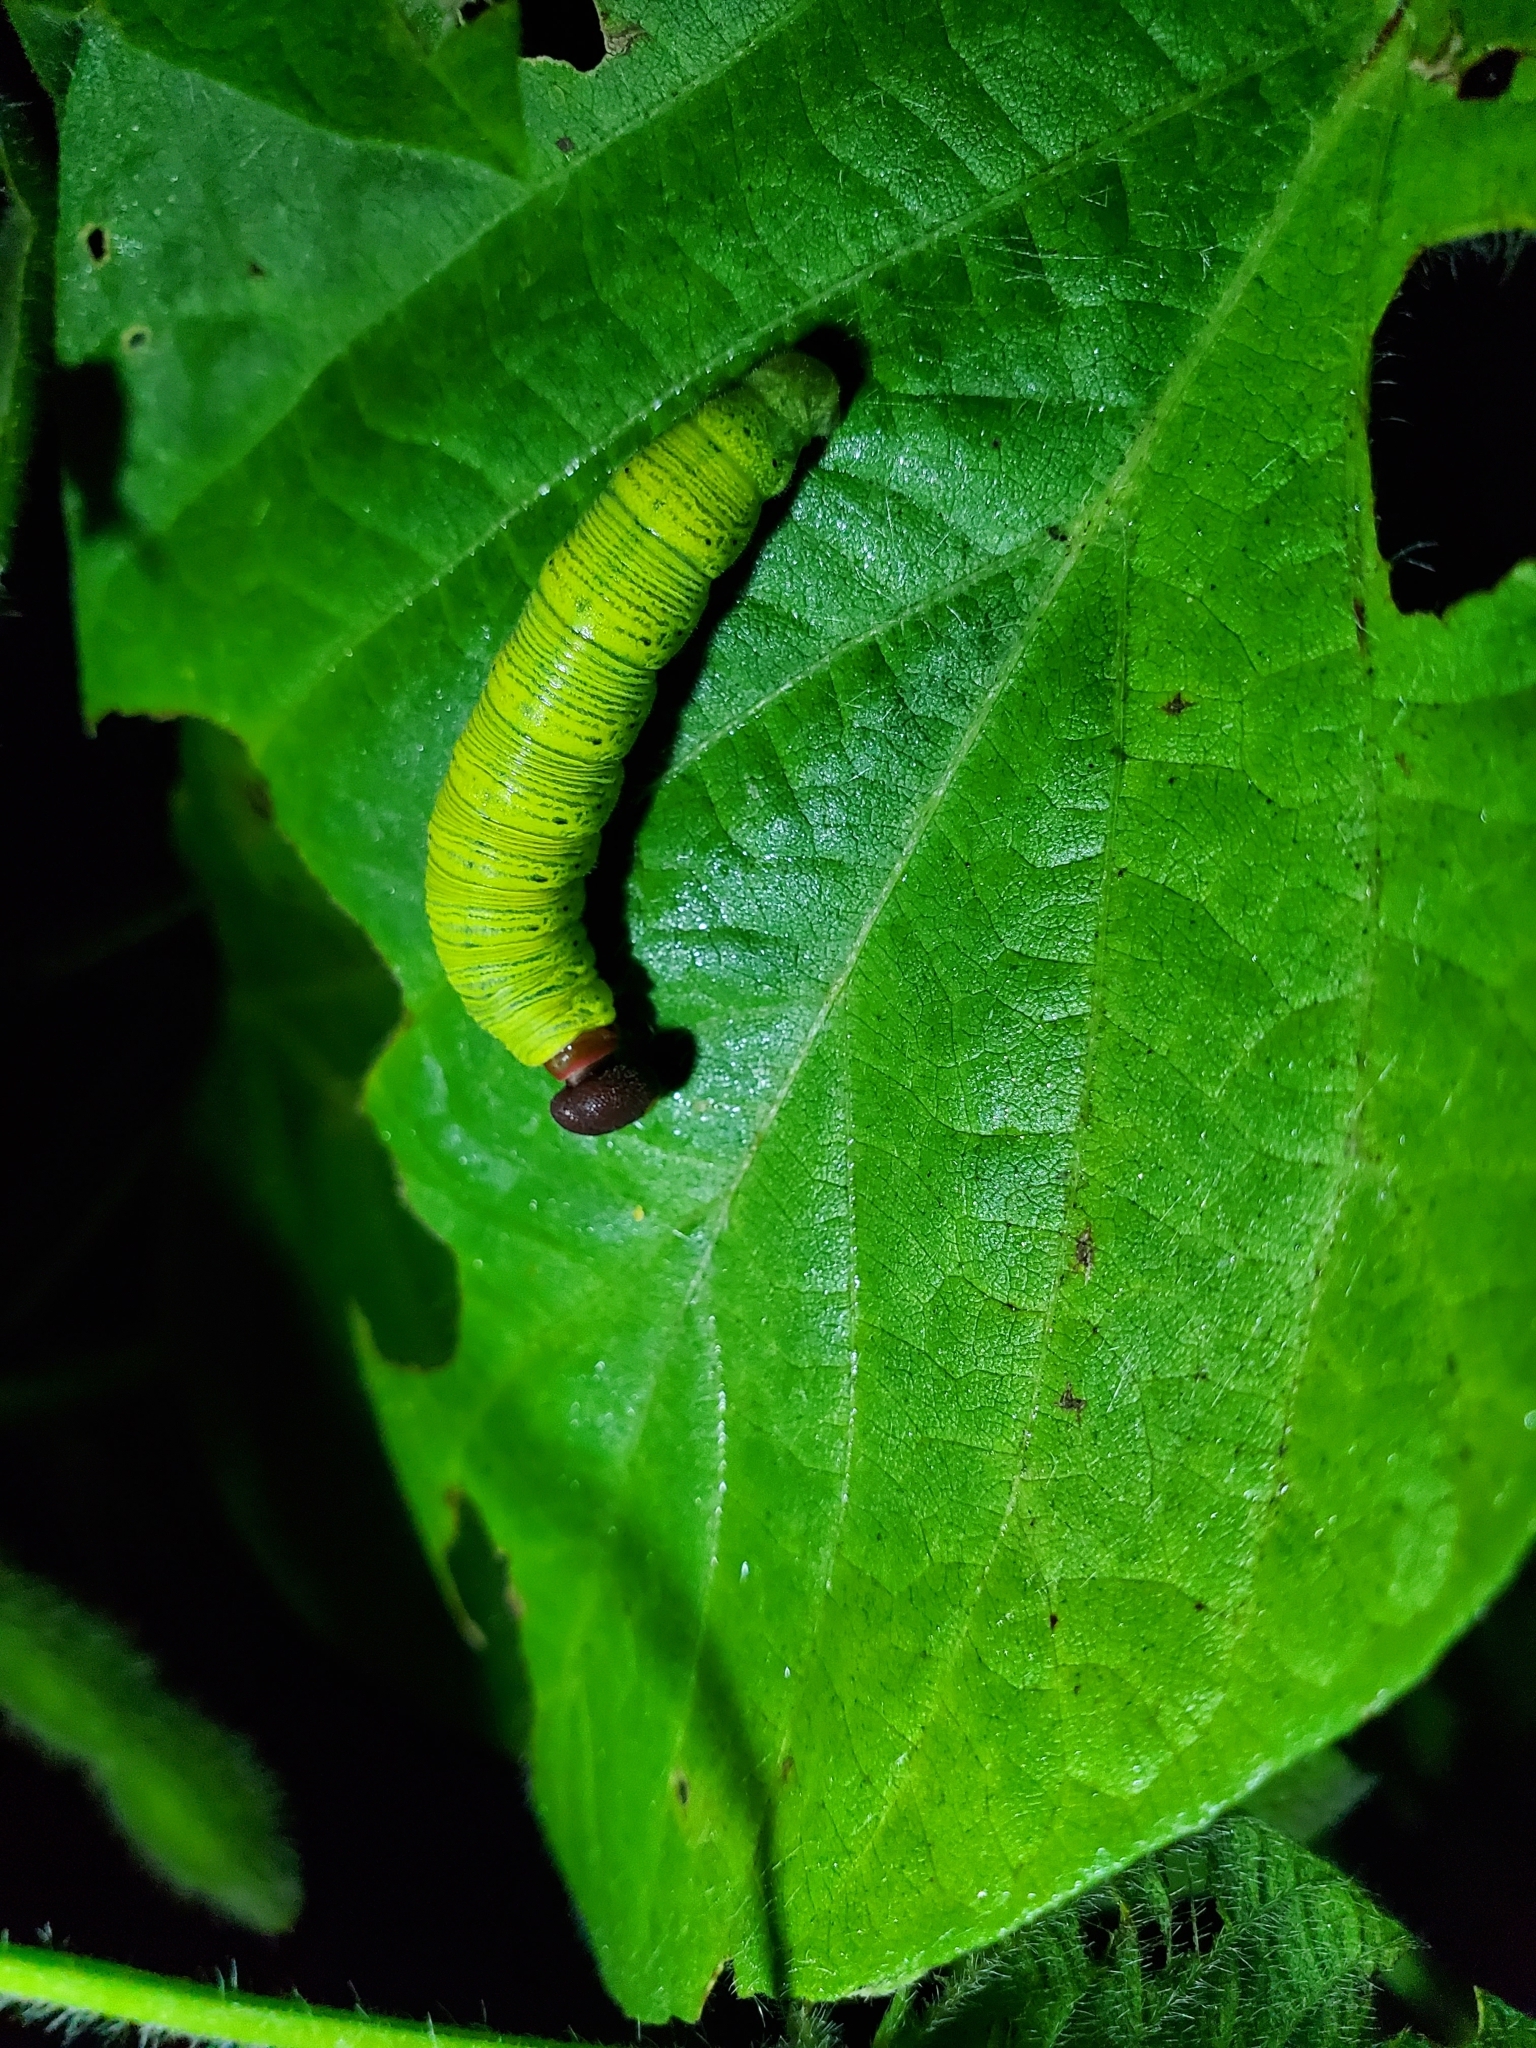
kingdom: Animalia
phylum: Arthropoda
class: Insecta
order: Lepidoptera
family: Hesperiidae
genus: Epargyreus
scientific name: Epargyreus clarus
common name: Silver-spotted skipper
